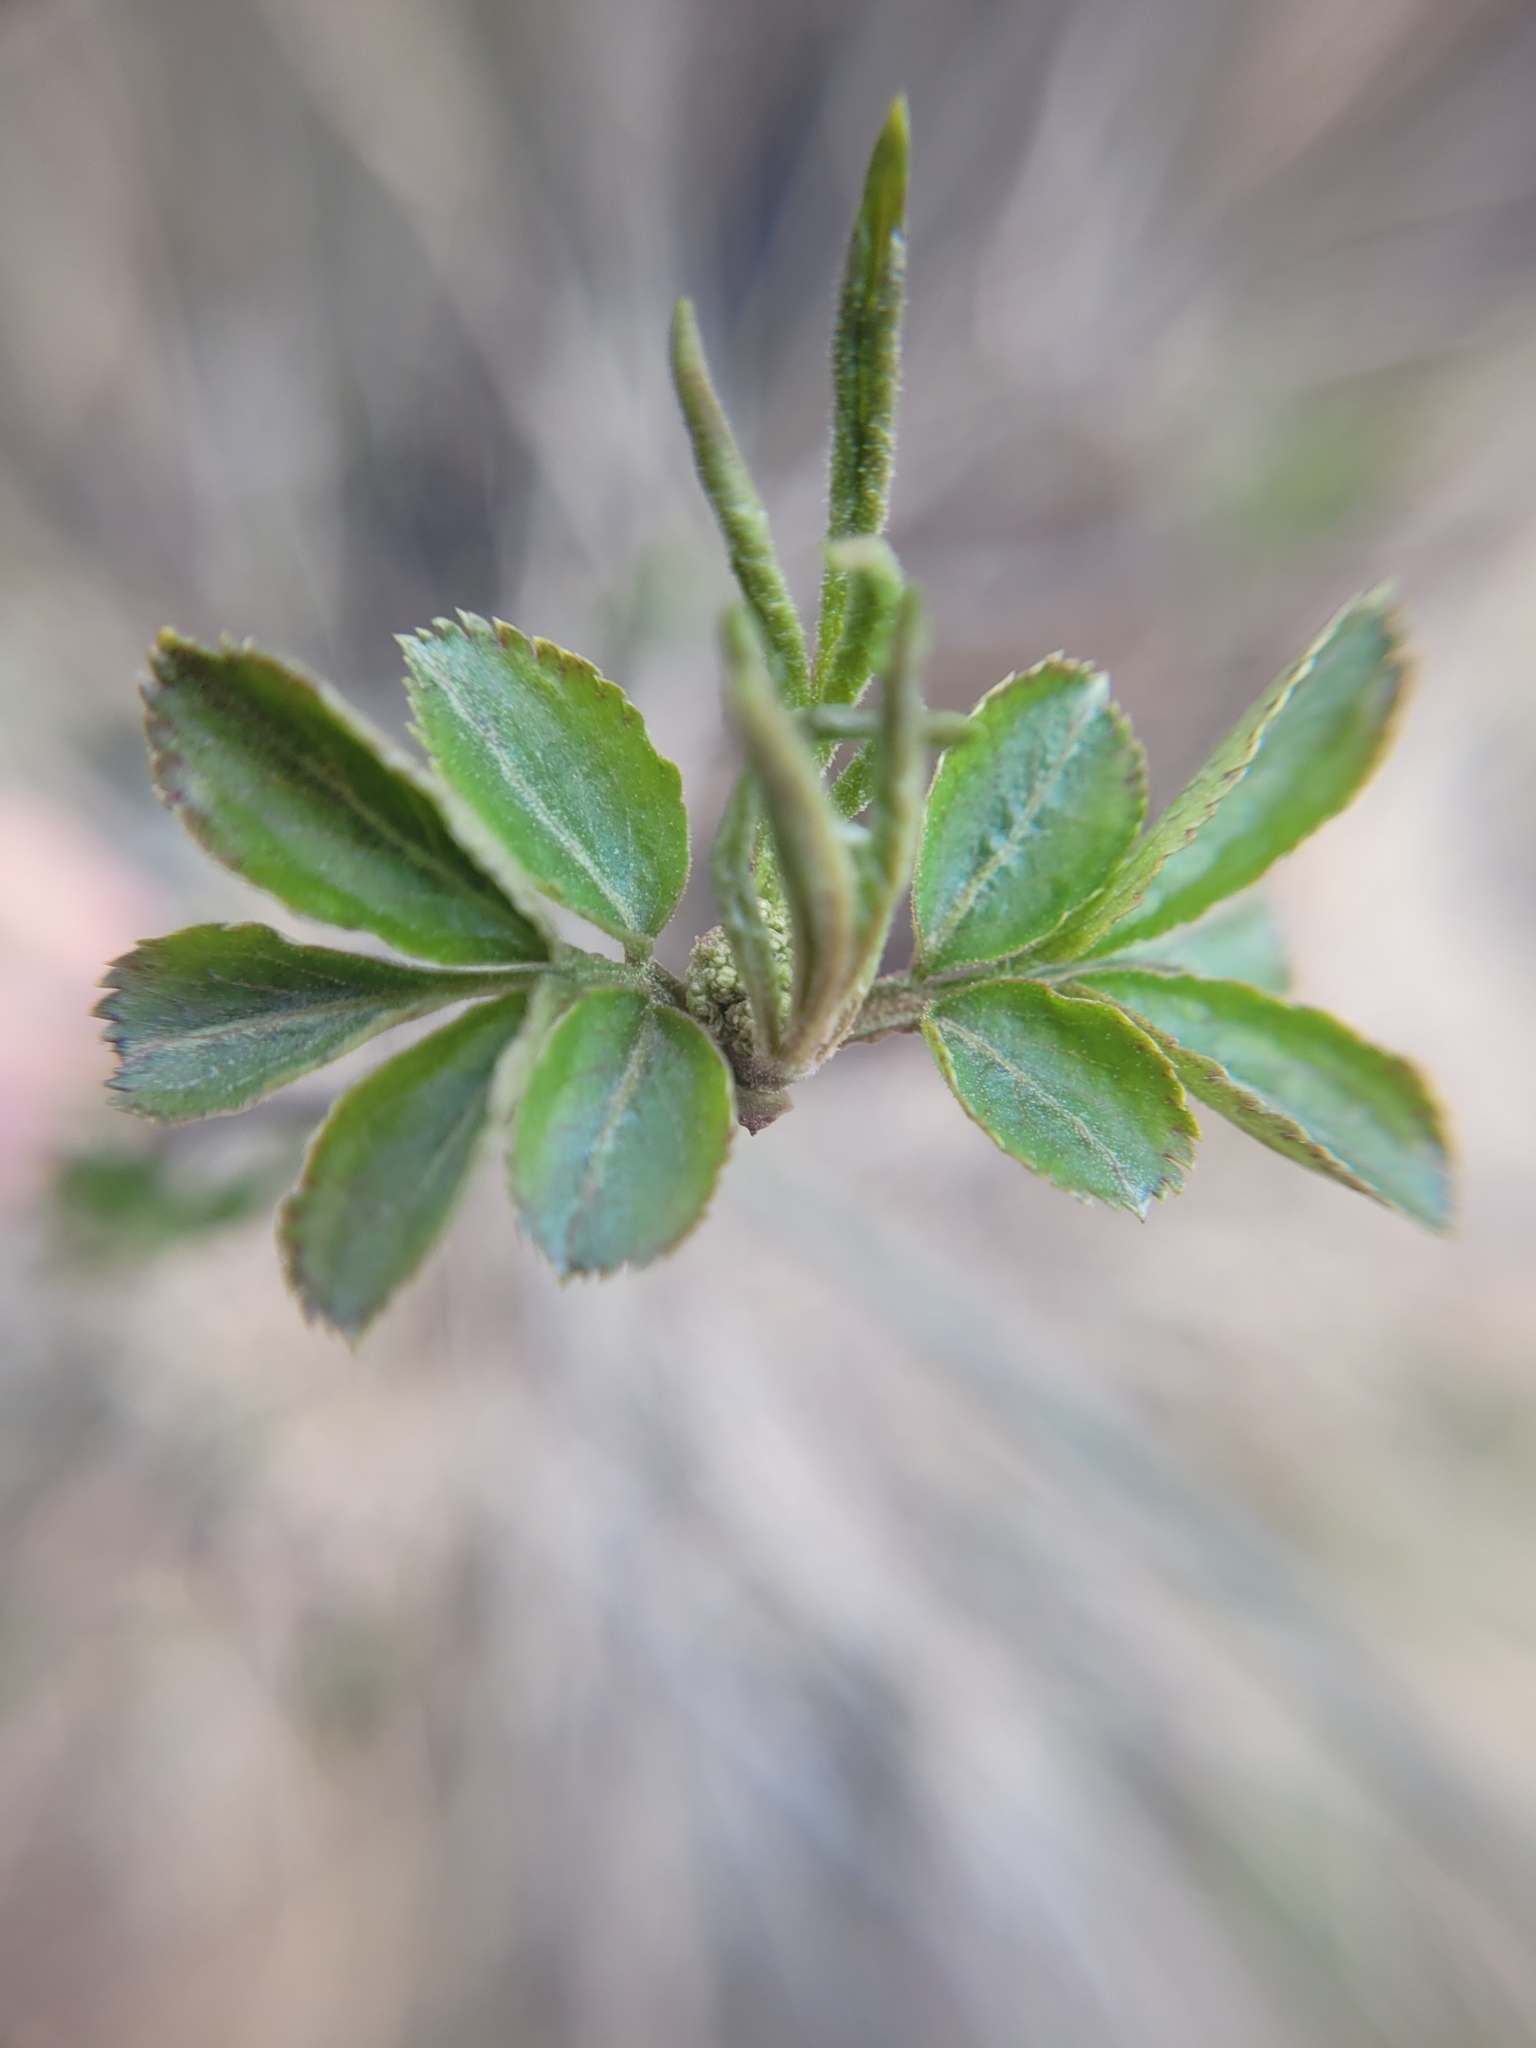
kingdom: Plantae
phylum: Tracheophyta
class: Magnoliopsida
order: Dipsacales
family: Viburnaceae
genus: Sambucus
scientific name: Sambucus nigra
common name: Elder
